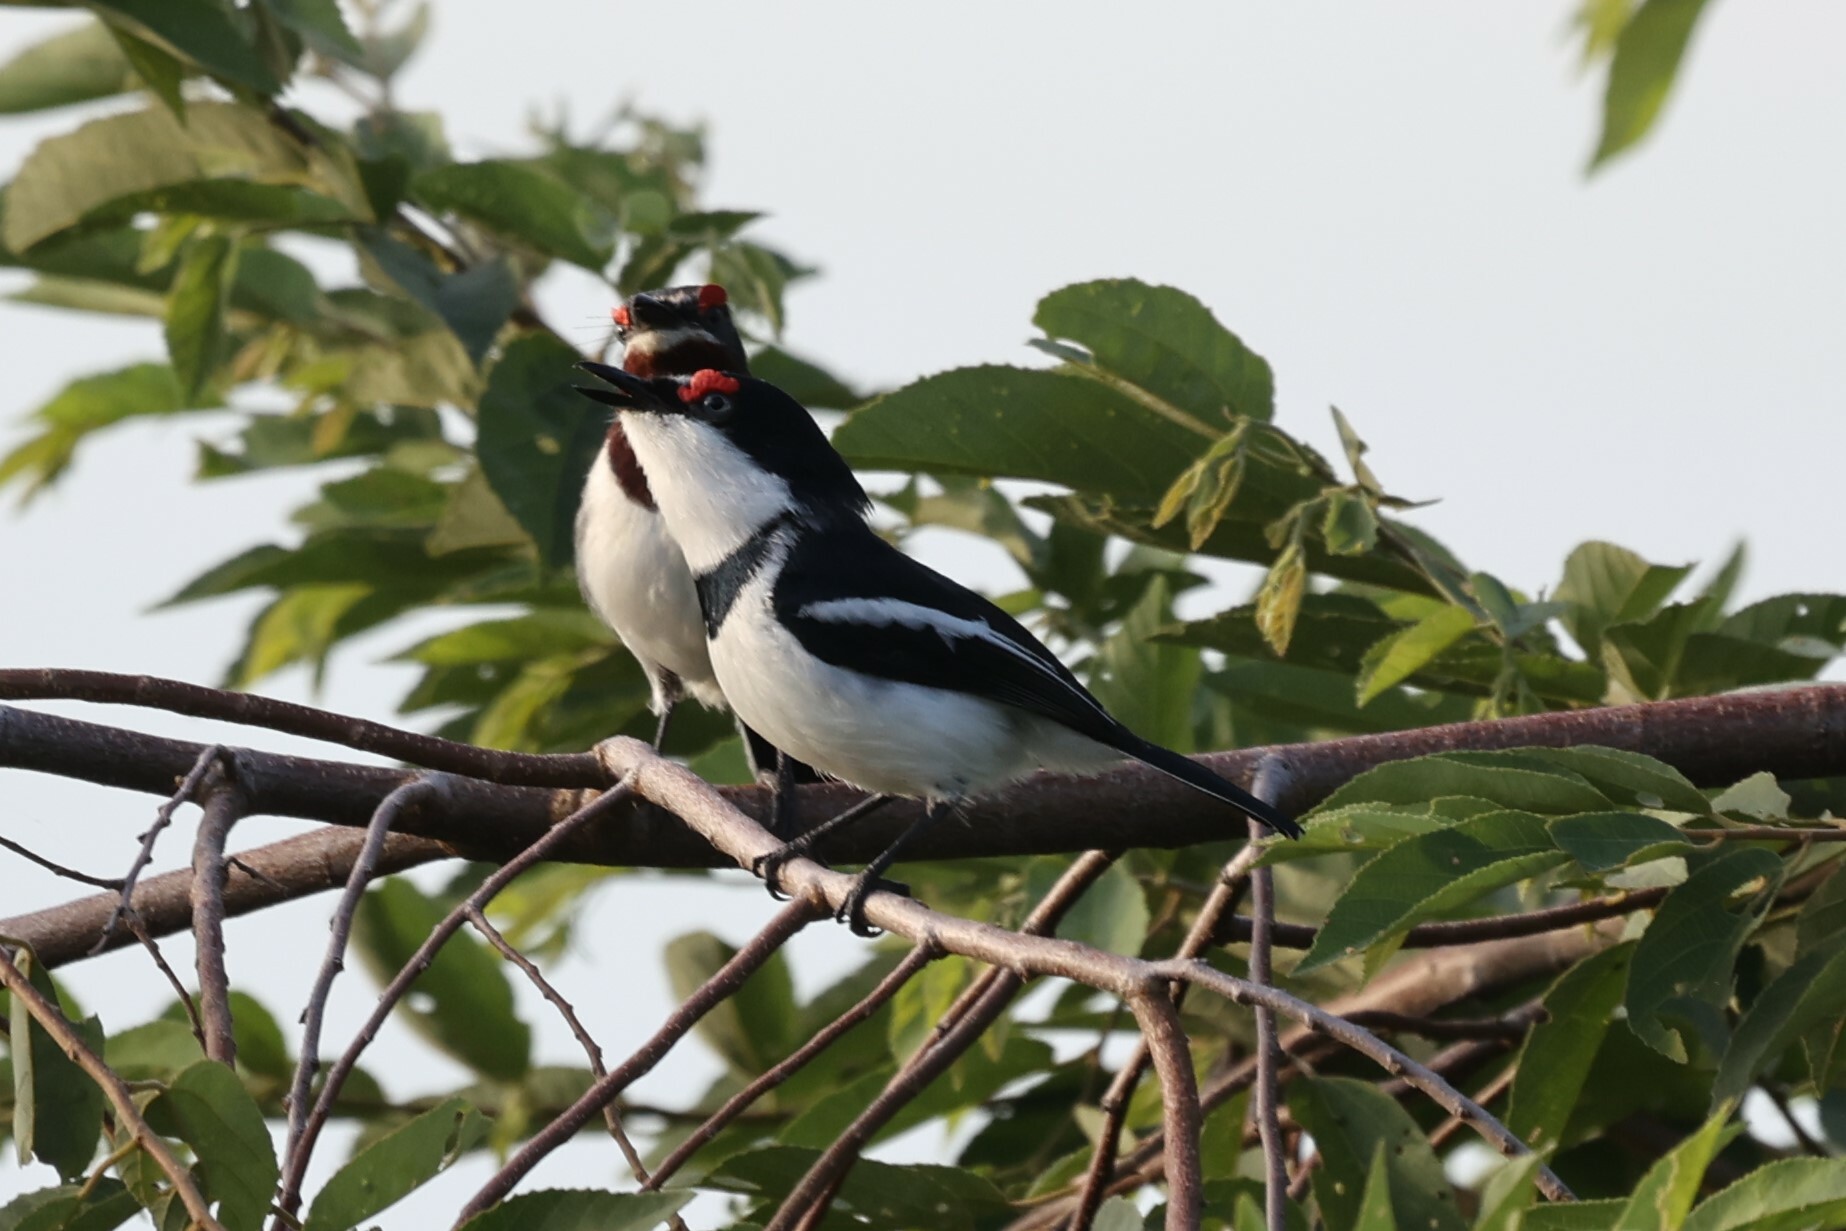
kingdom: Animalia
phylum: Chordata
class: Aves
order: Passeriformes
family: Platysteiridae
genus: Platysteira
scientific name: Platysteira cyanea
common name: Brown-throated wattle-eye
